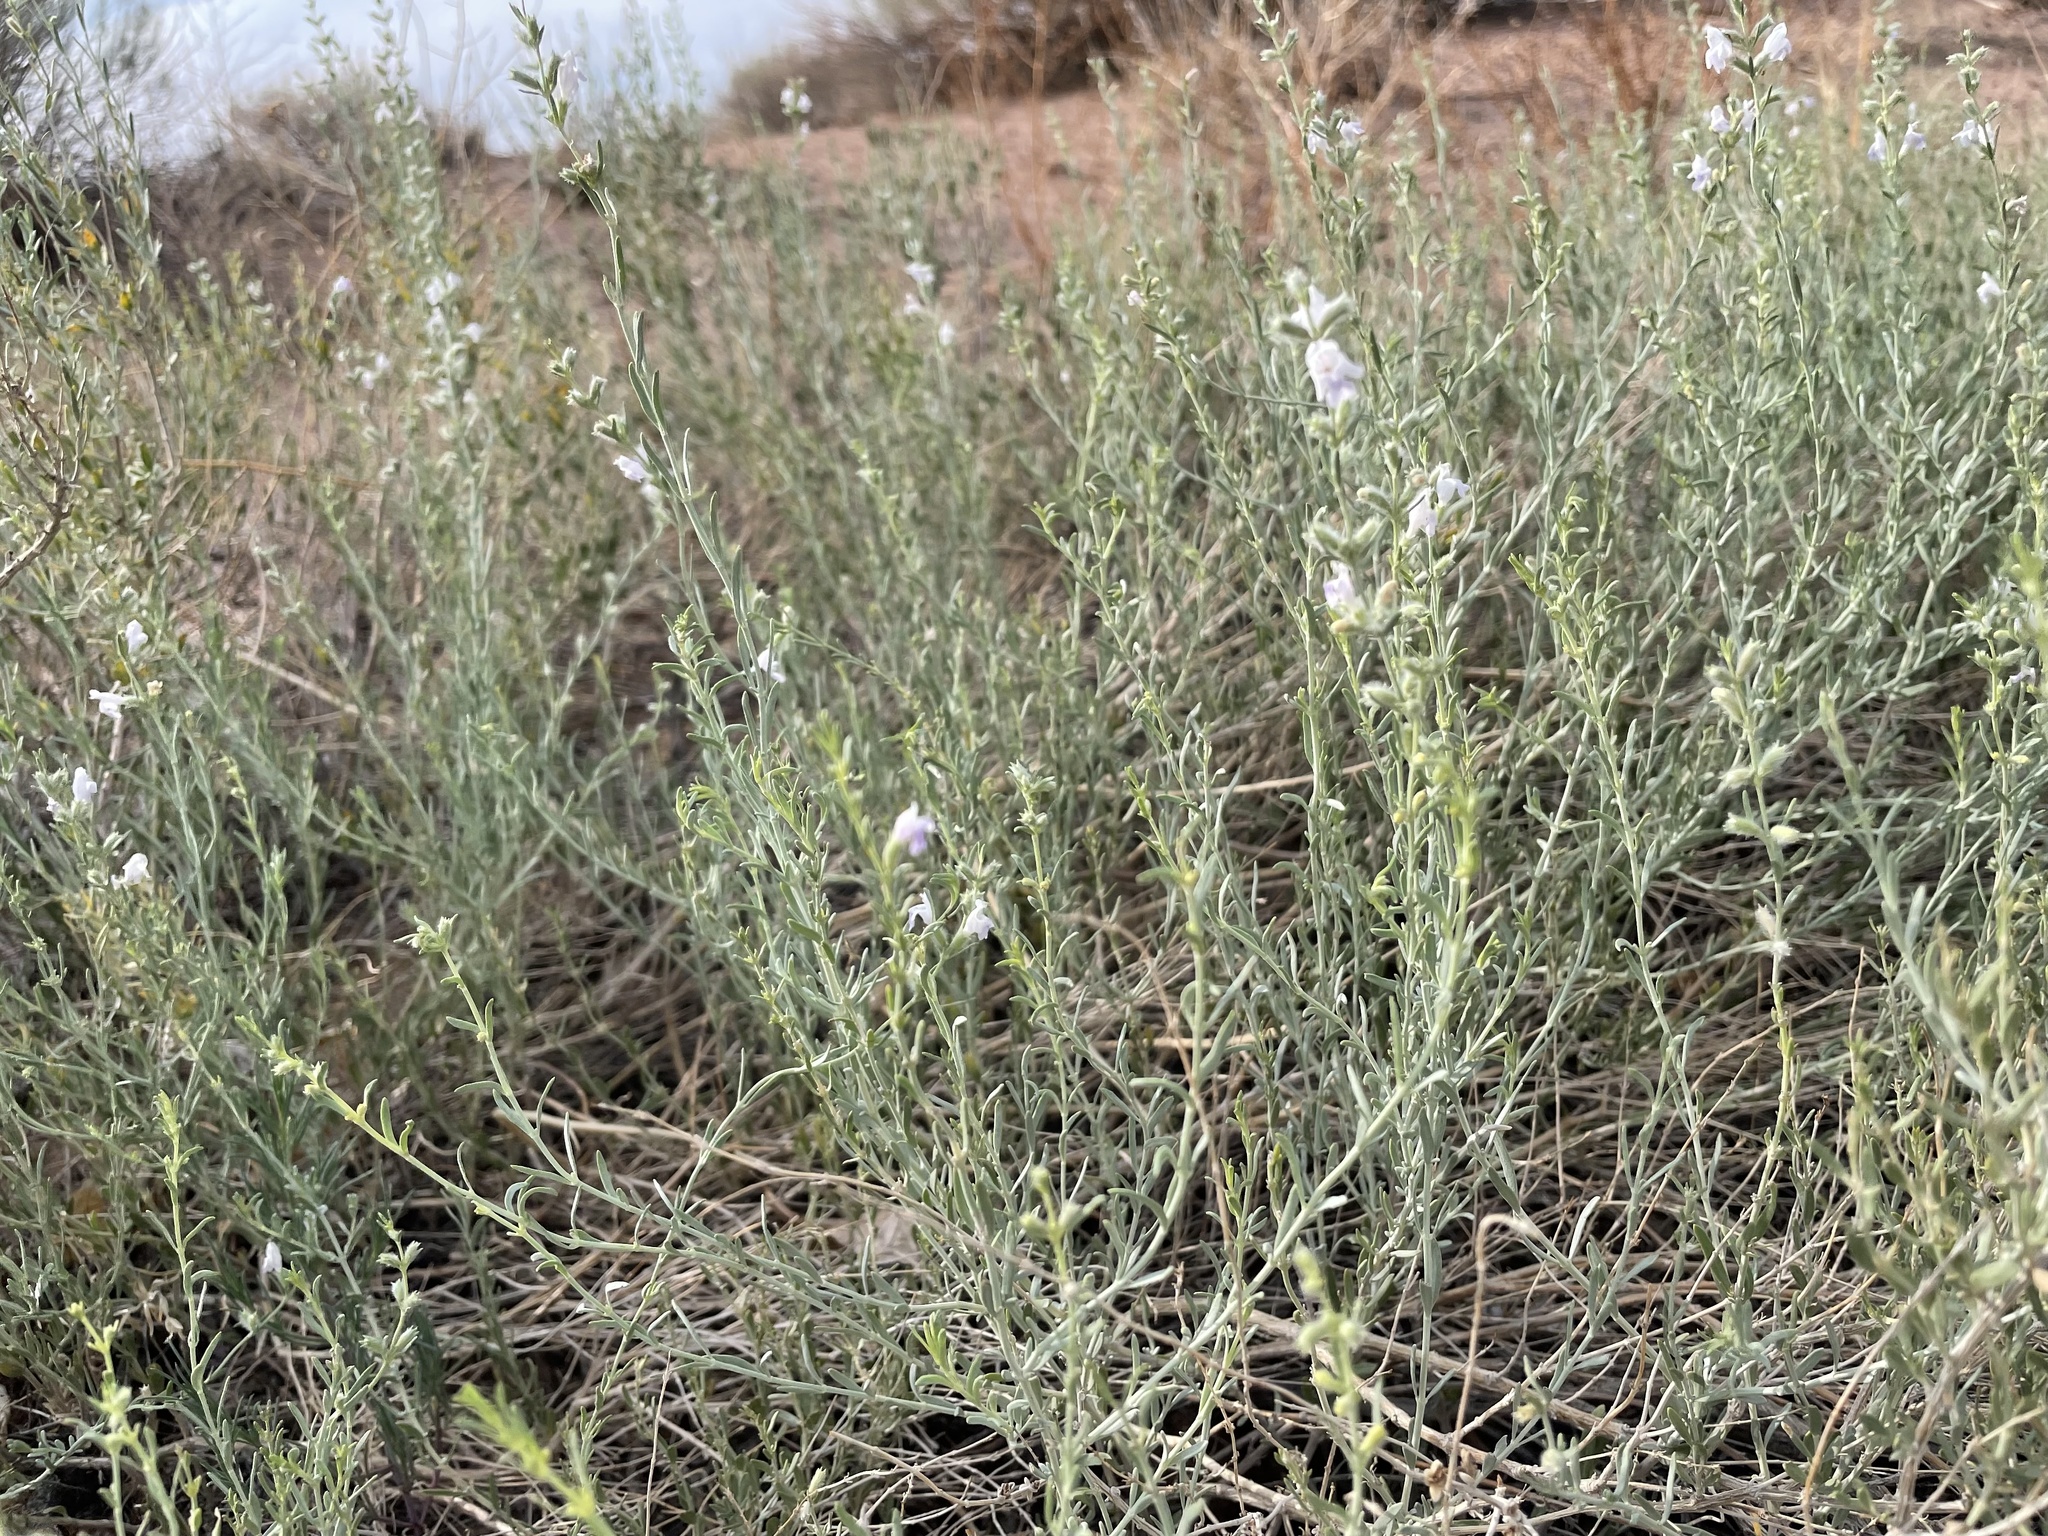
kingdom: Plantae
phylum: Tracheophyta
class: Magnoliopsida
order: Lamiales
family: Lamiaceae
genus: Poliomintha
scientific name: Poliomintha incana
